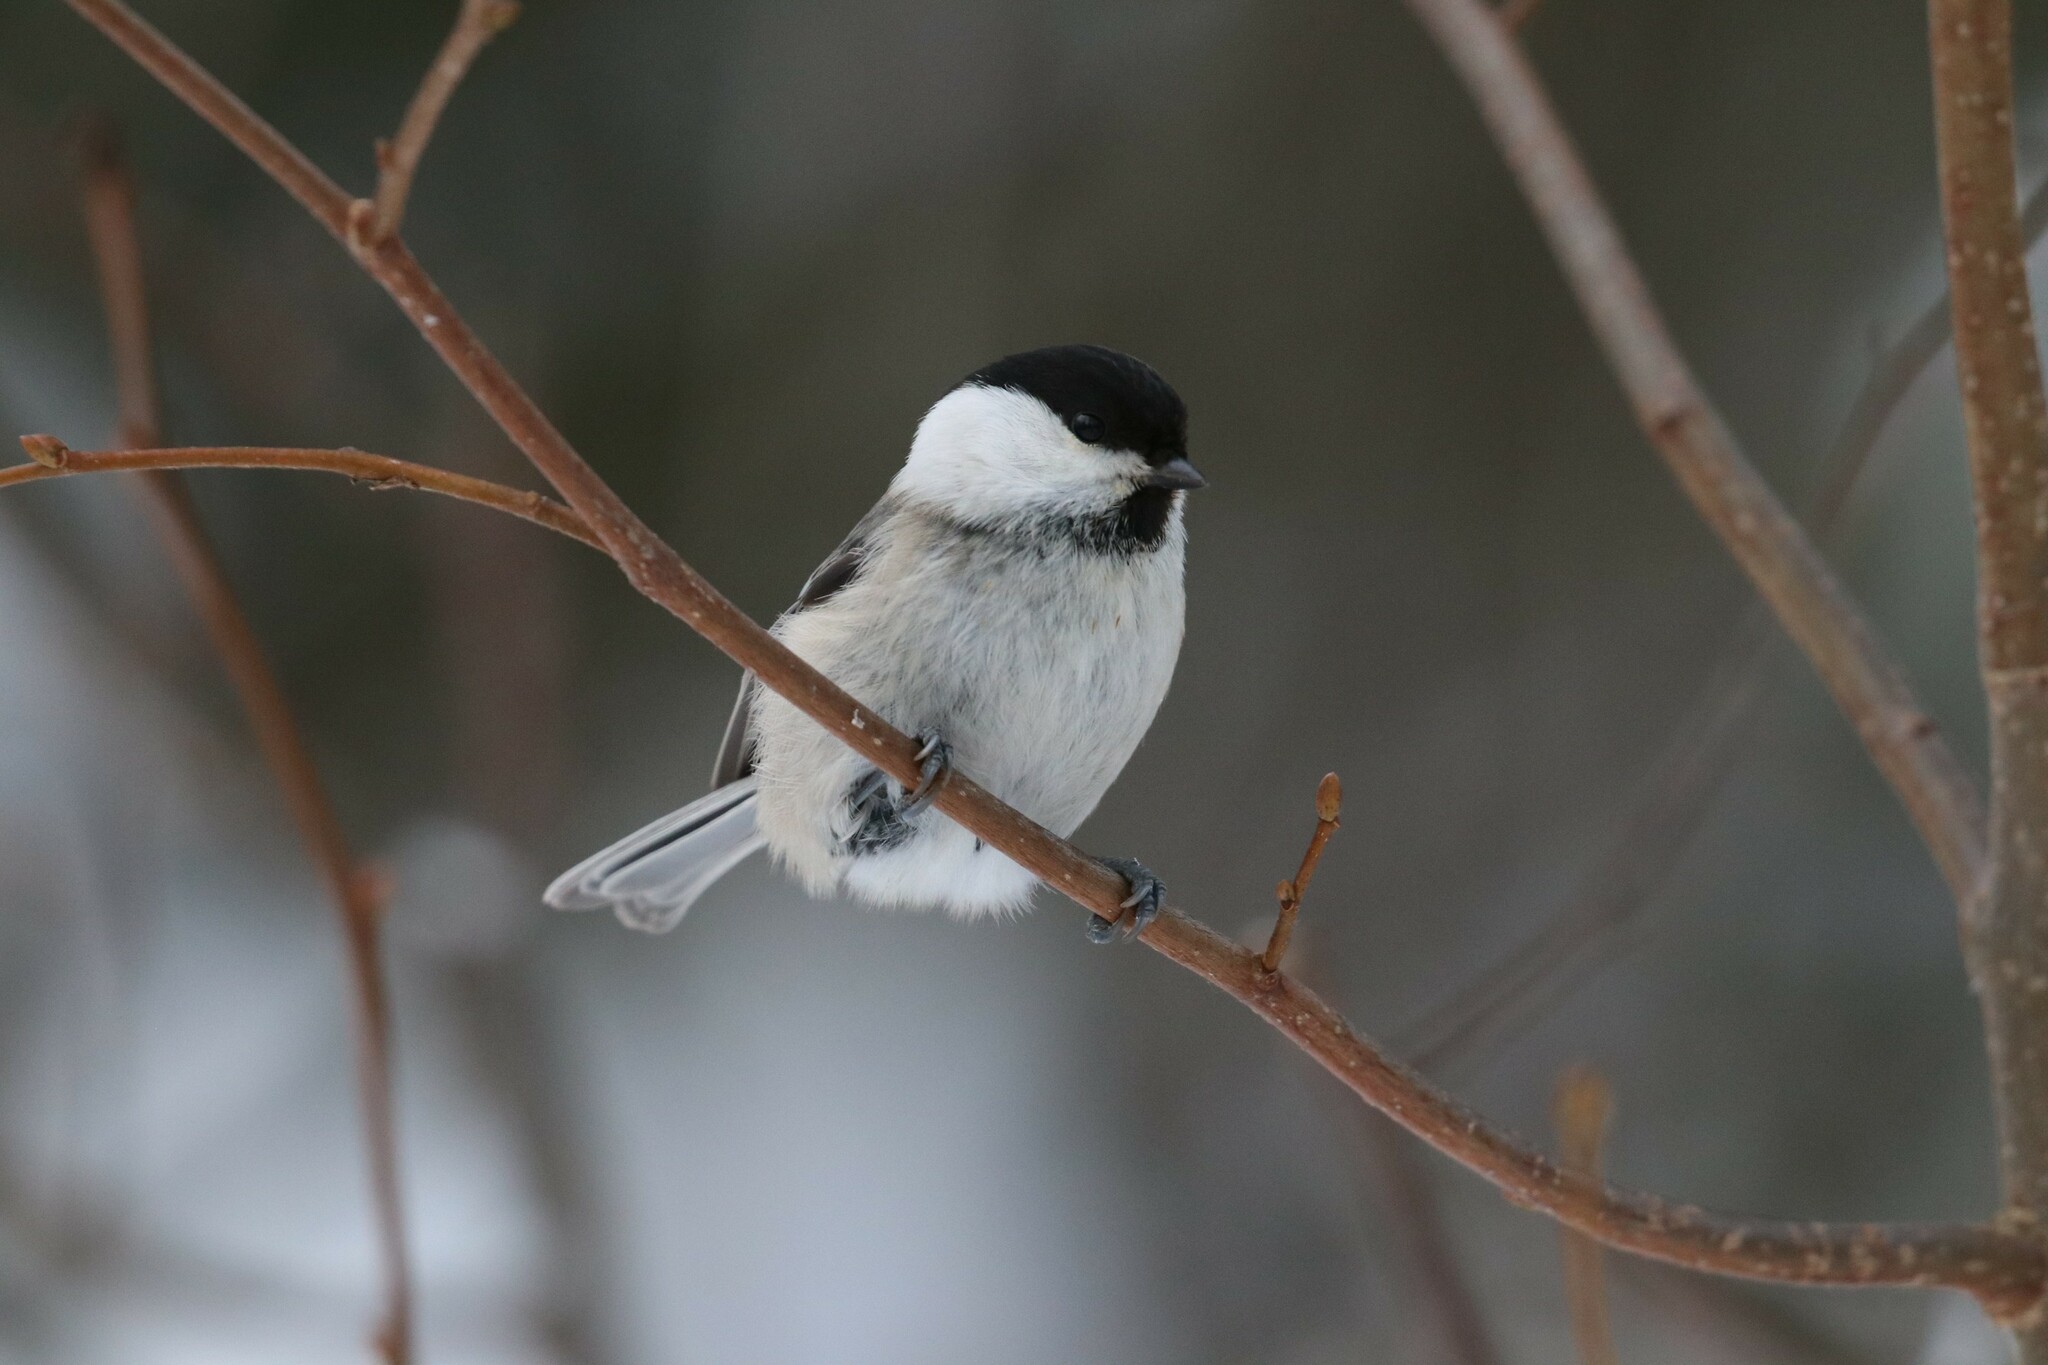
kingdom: Animalia
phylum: Chordata
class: Aves
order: Passeriformes
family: Paridae
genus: Poecile
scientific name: Poecile montanus
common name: Willow tit
